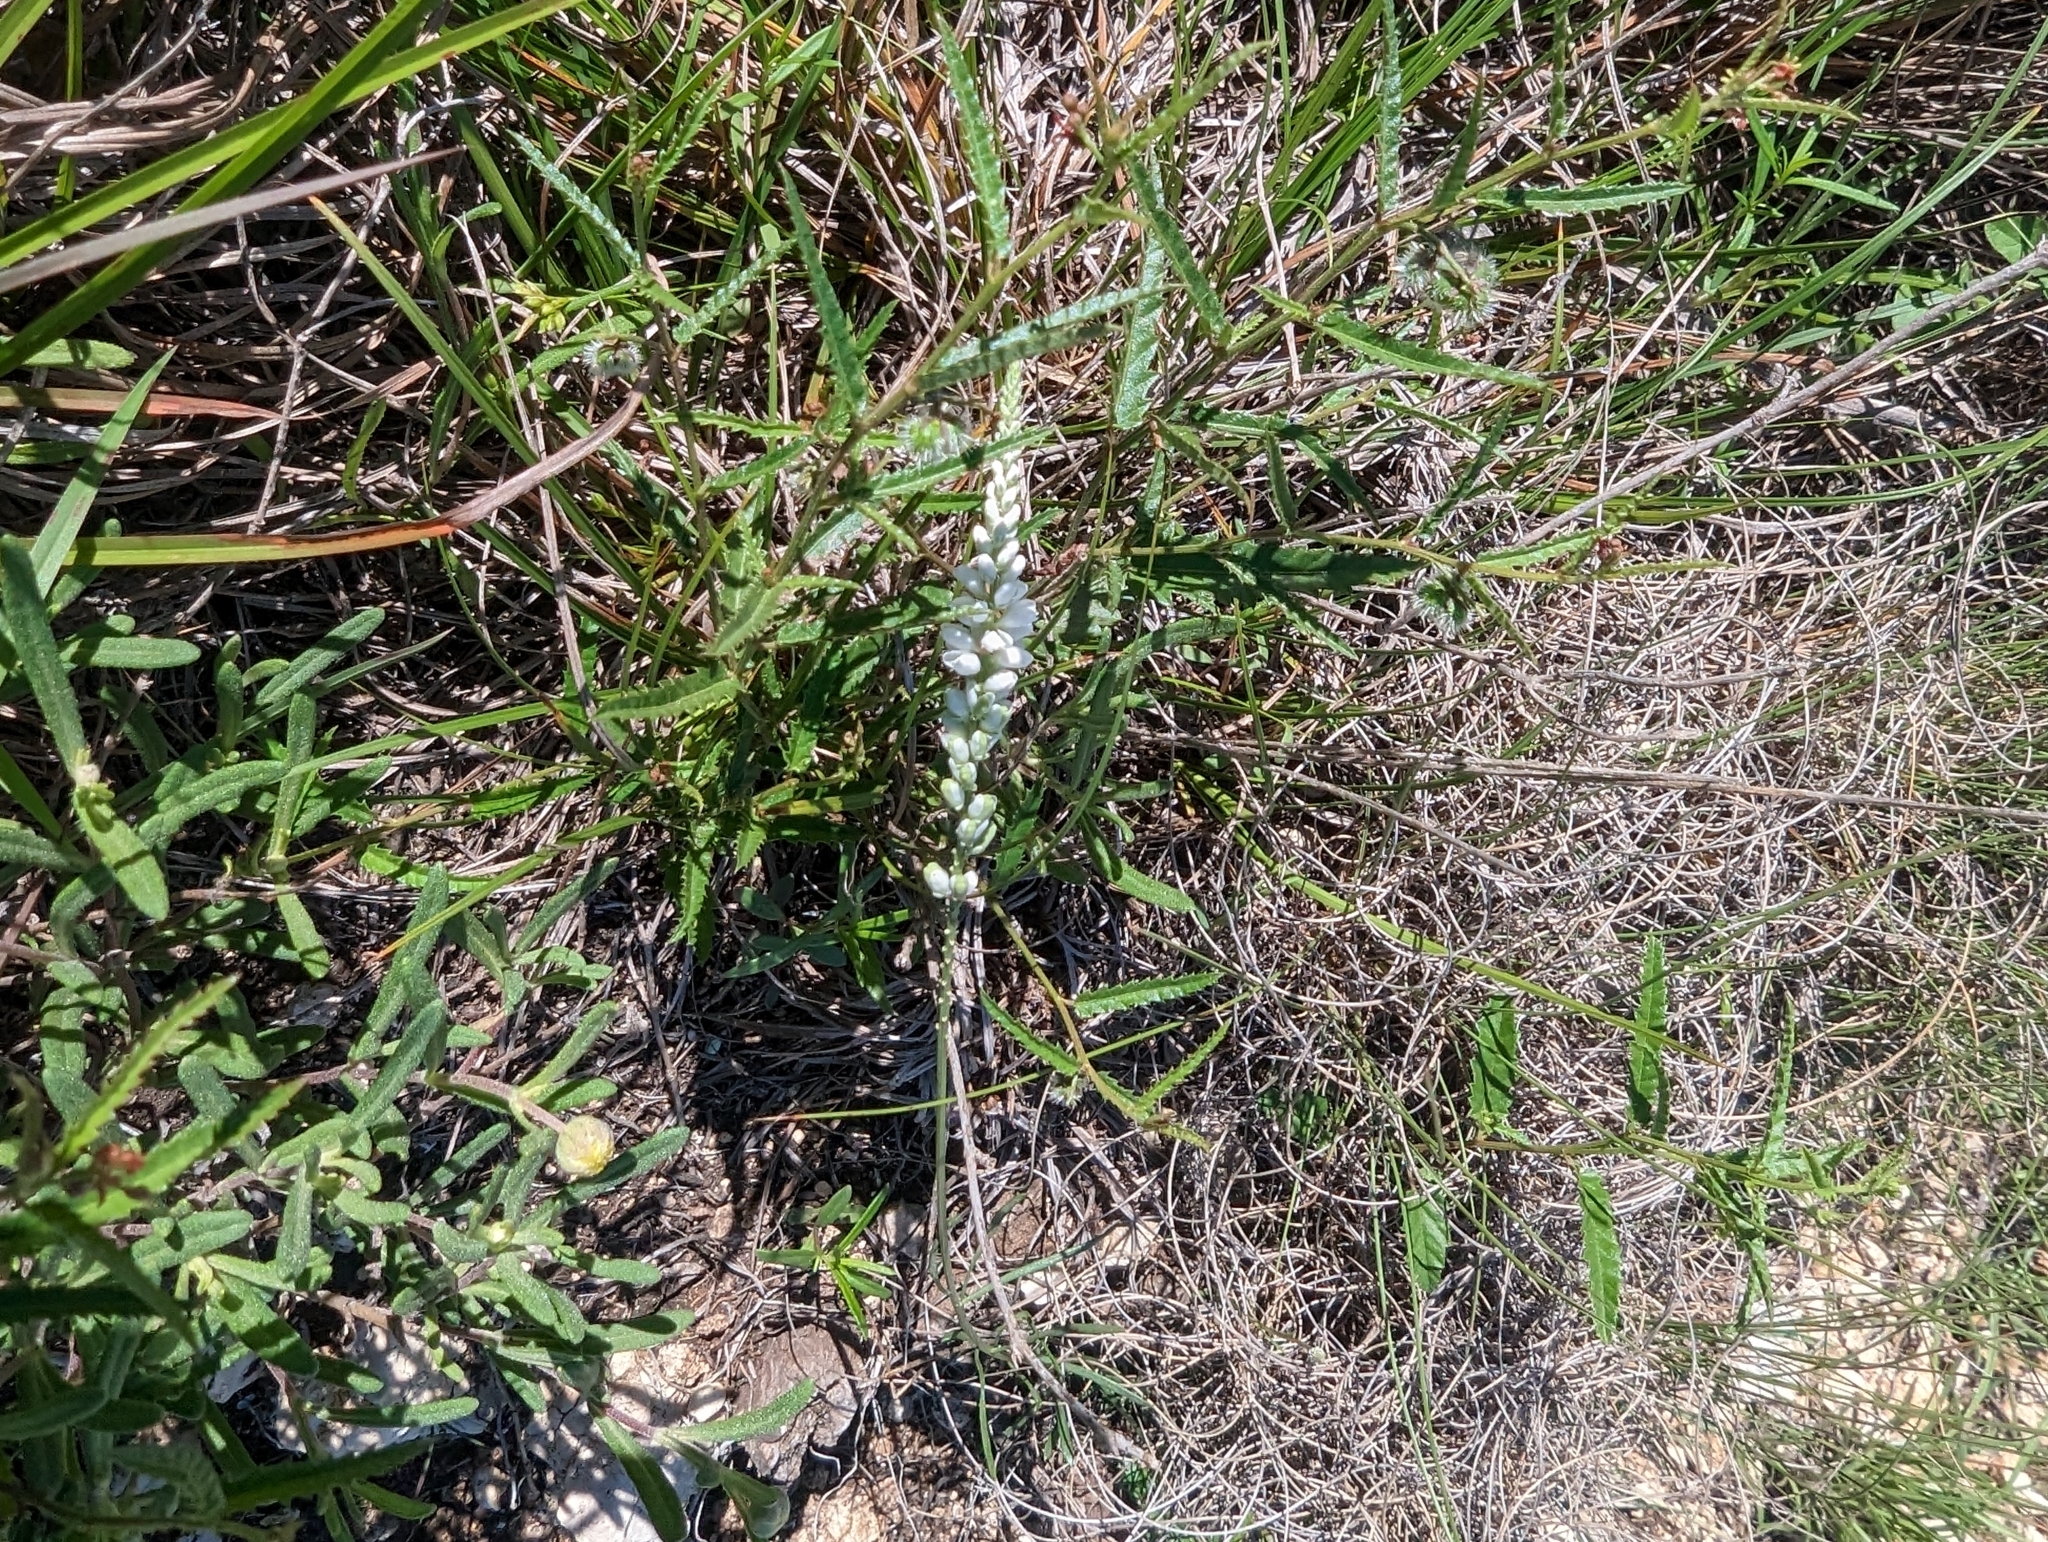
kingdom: Plantae
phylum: Tracheophyta
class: Magnoliopsida
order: Fabales
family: Polygalaceae
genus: Polygala
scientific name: Polygala alba
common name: White milkwort
